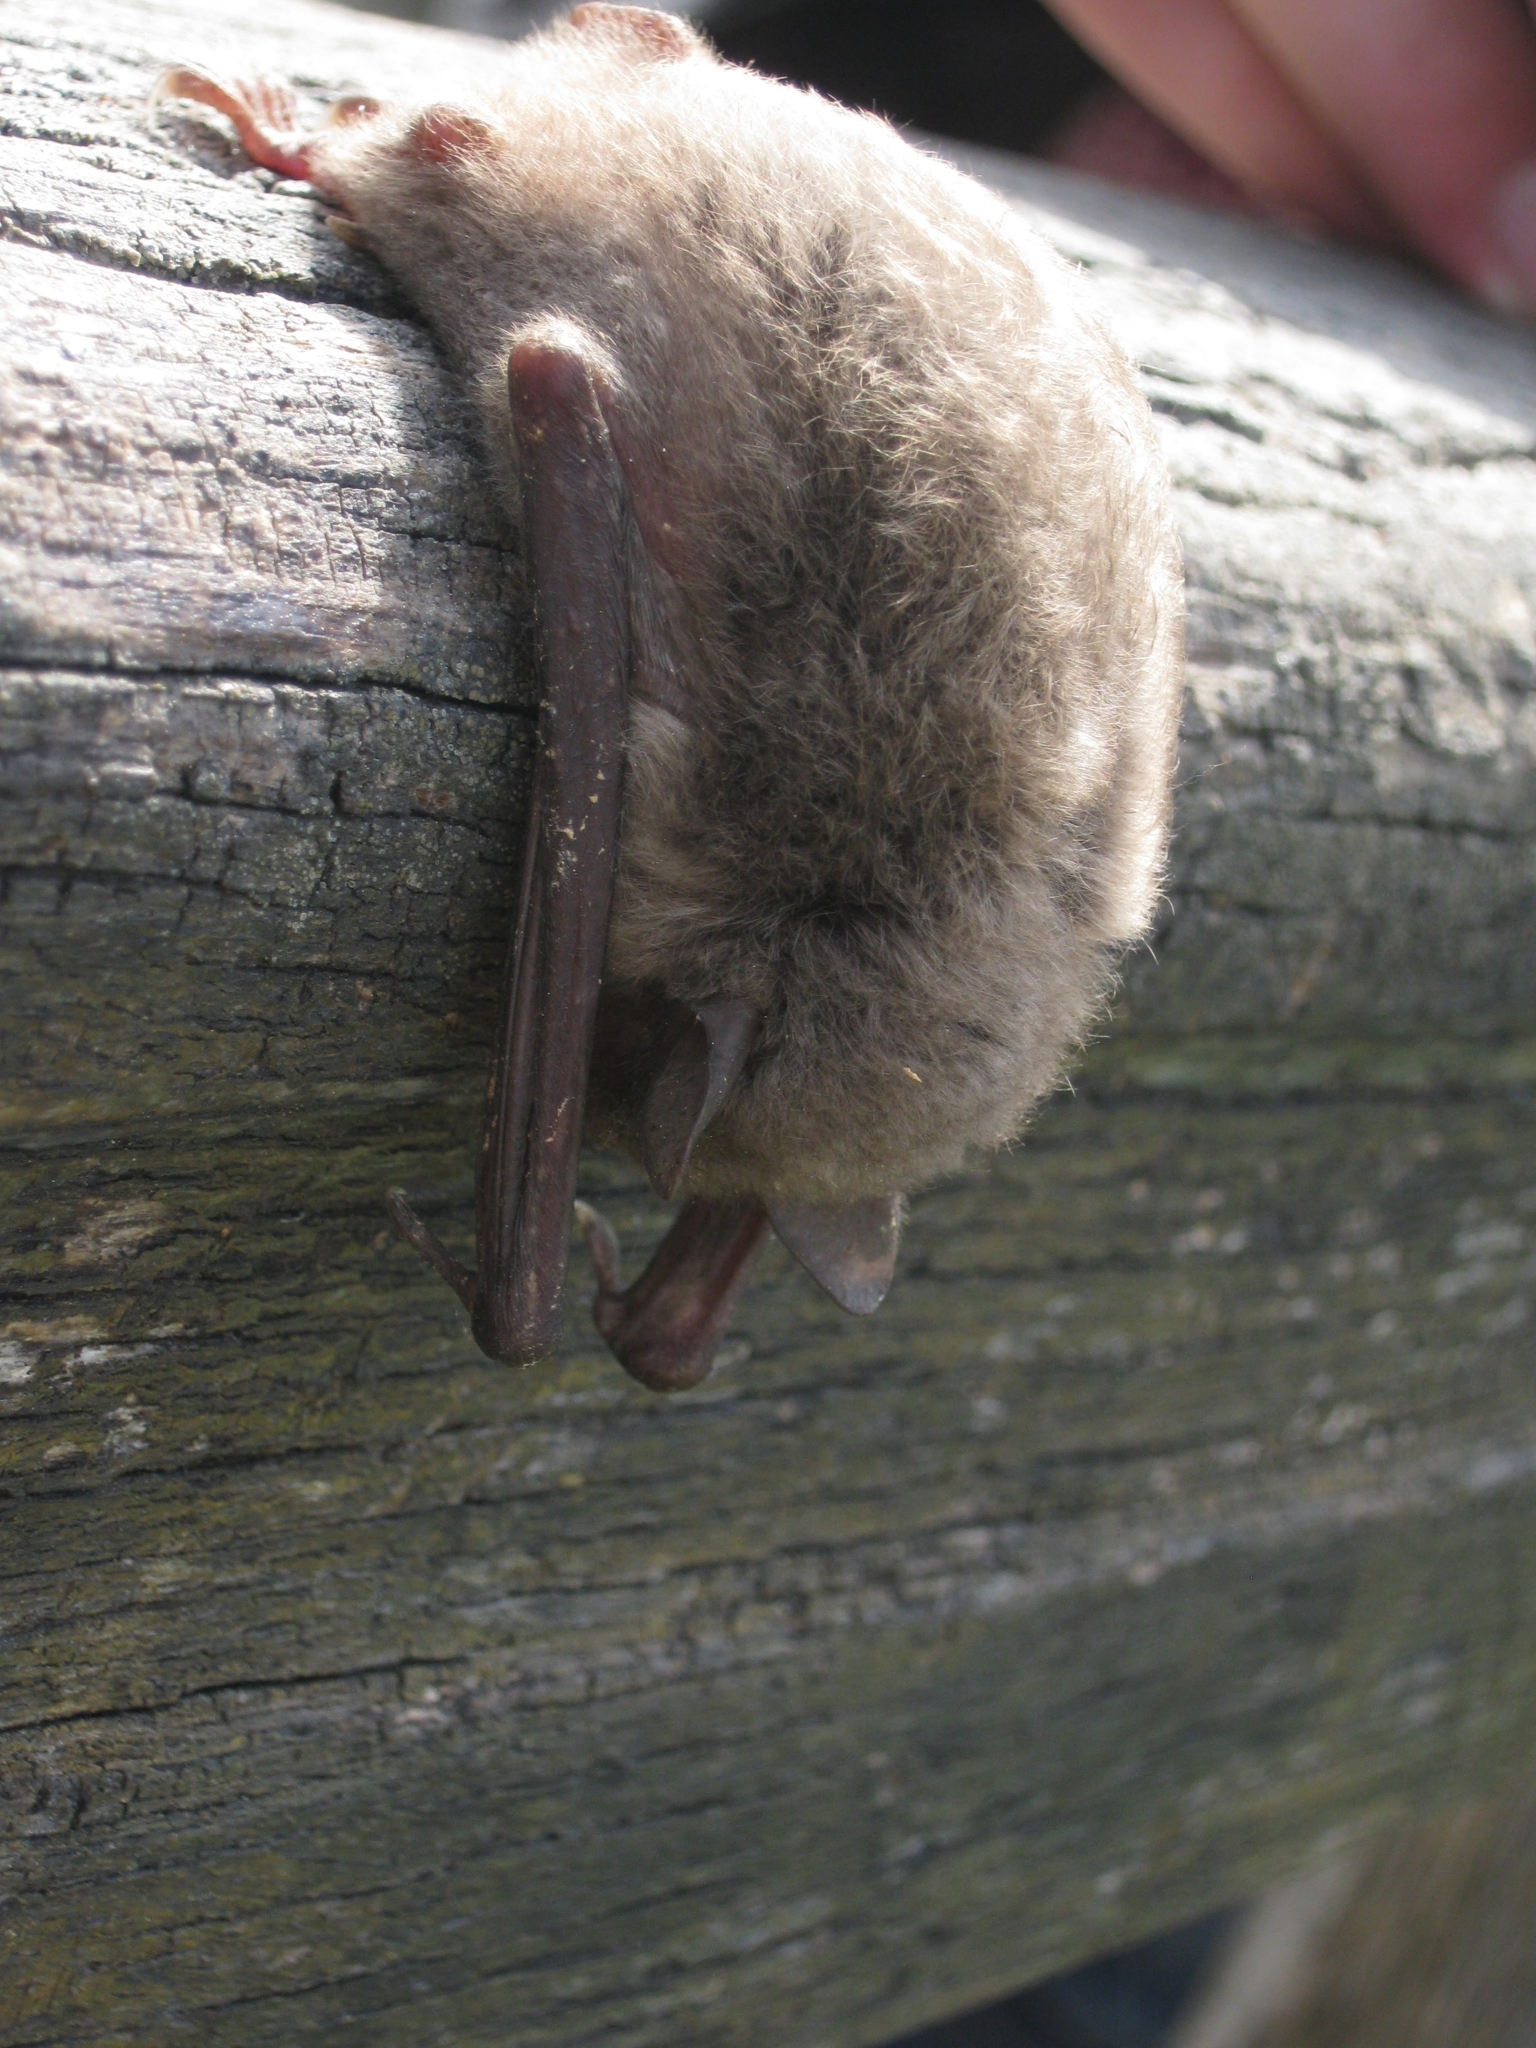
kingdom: Animalia
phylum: Chordata
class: Mammalia
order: Chiroptera
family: Vespertilionidae
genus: Myotis
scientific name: Myotis daubentonii
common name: Daubenton's myotis
